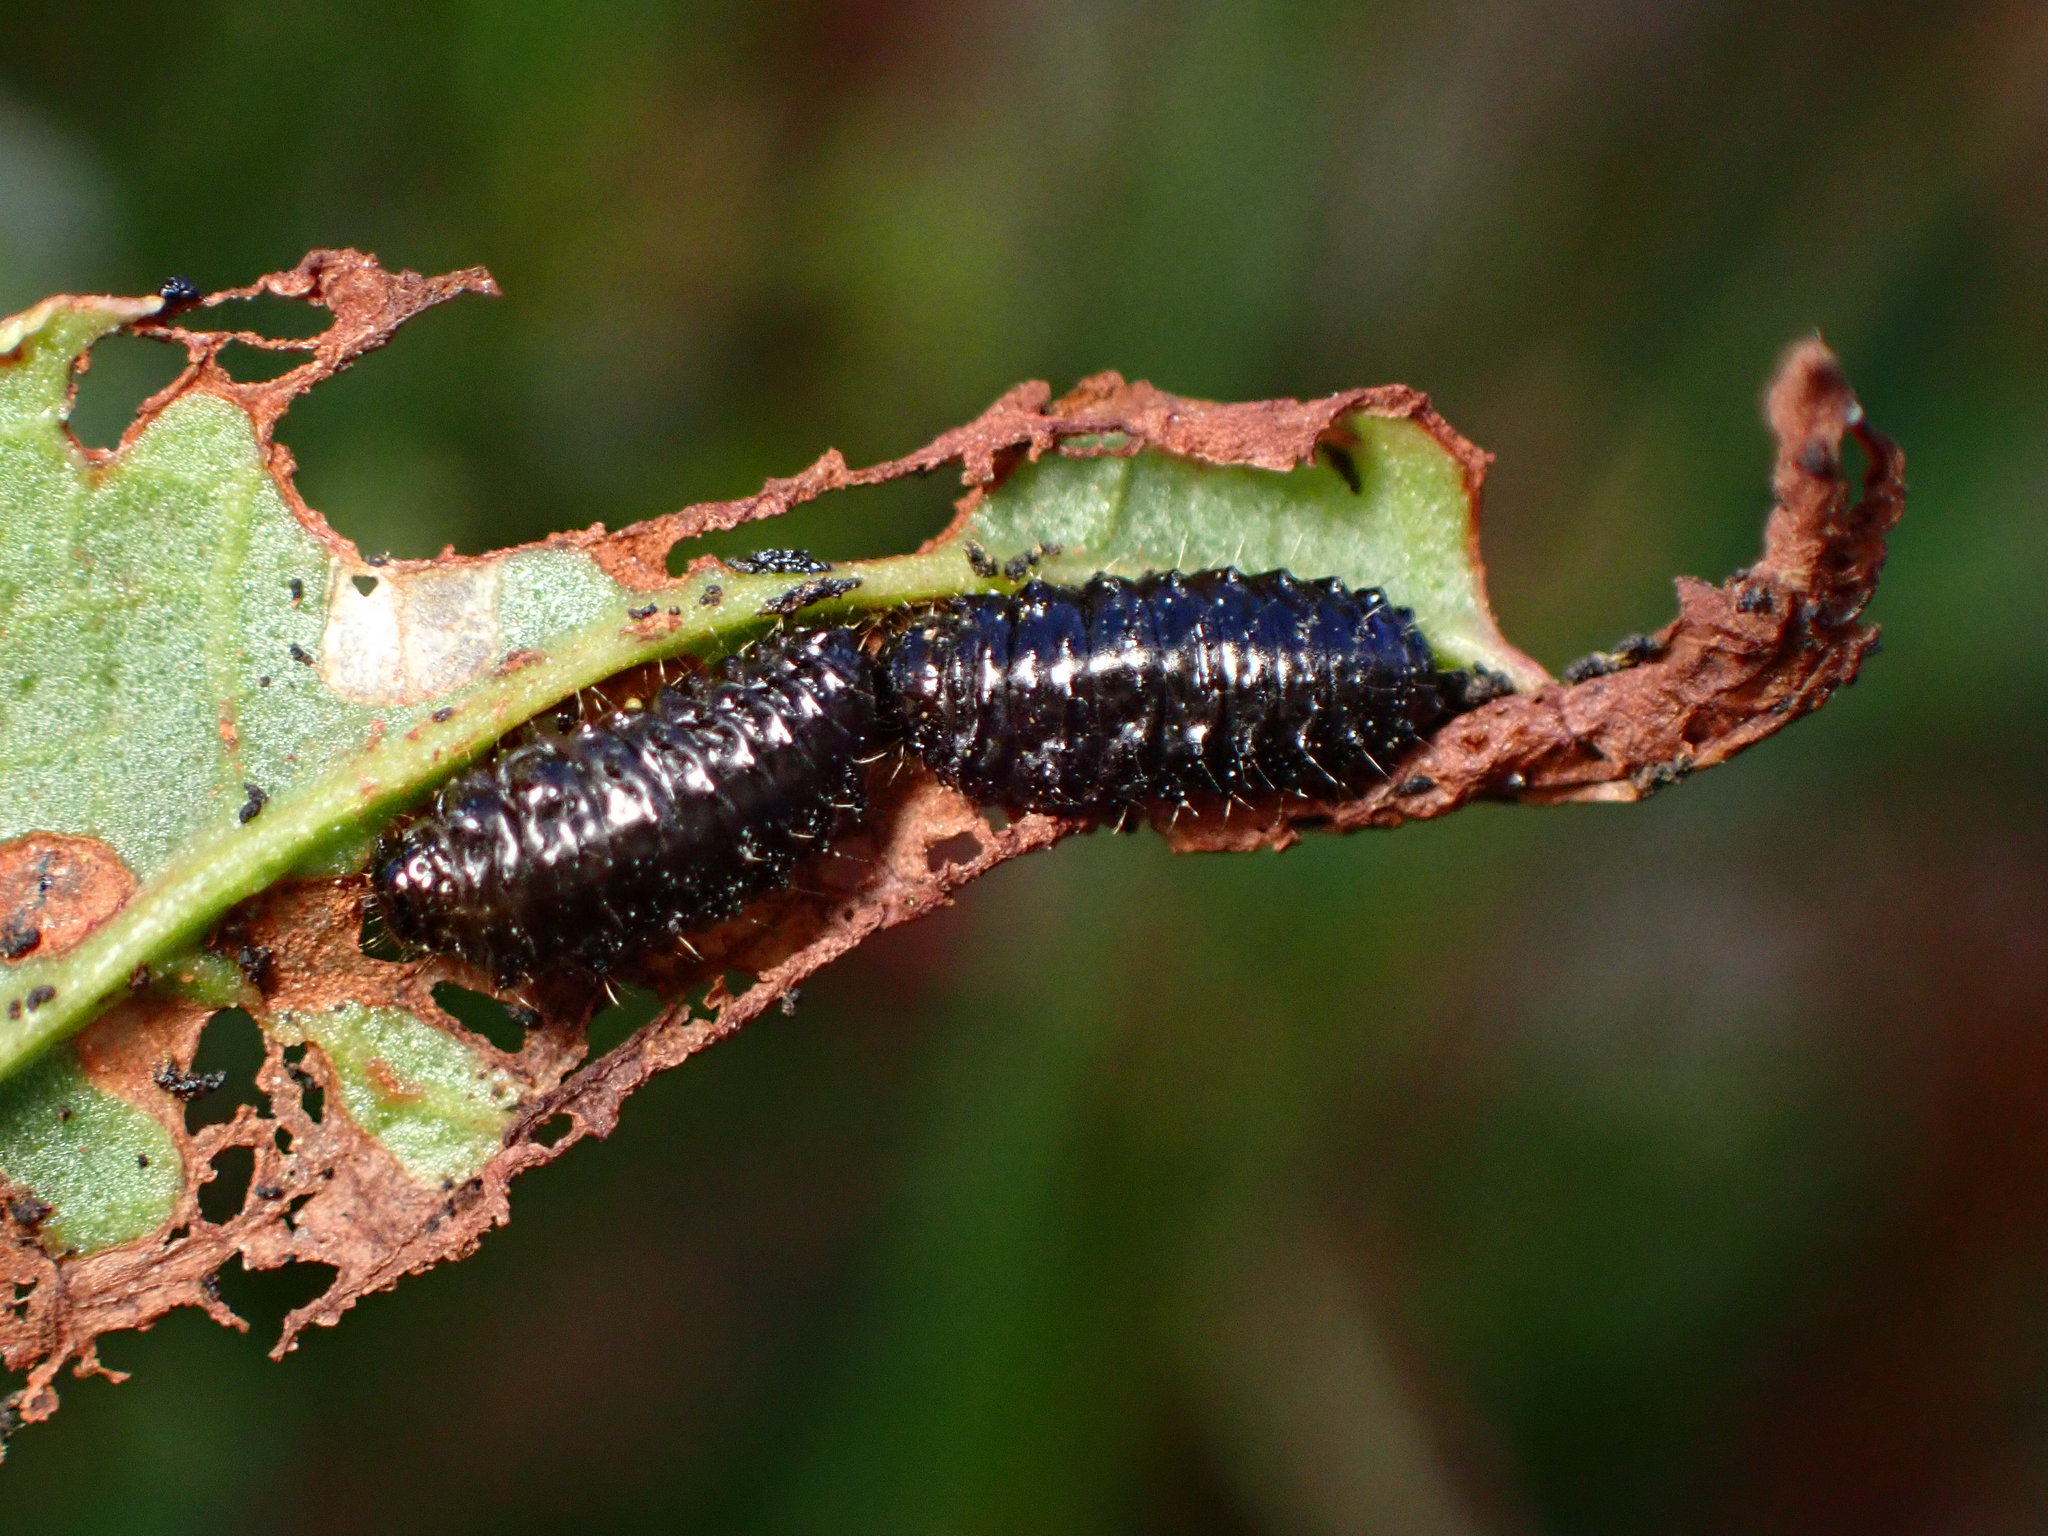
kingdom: Animalia
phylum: Arthropoda
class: Insecta
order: Coleoptera
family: Chrysomelidae
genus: Gastrophysa
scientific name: Gastrophysa cyanea
